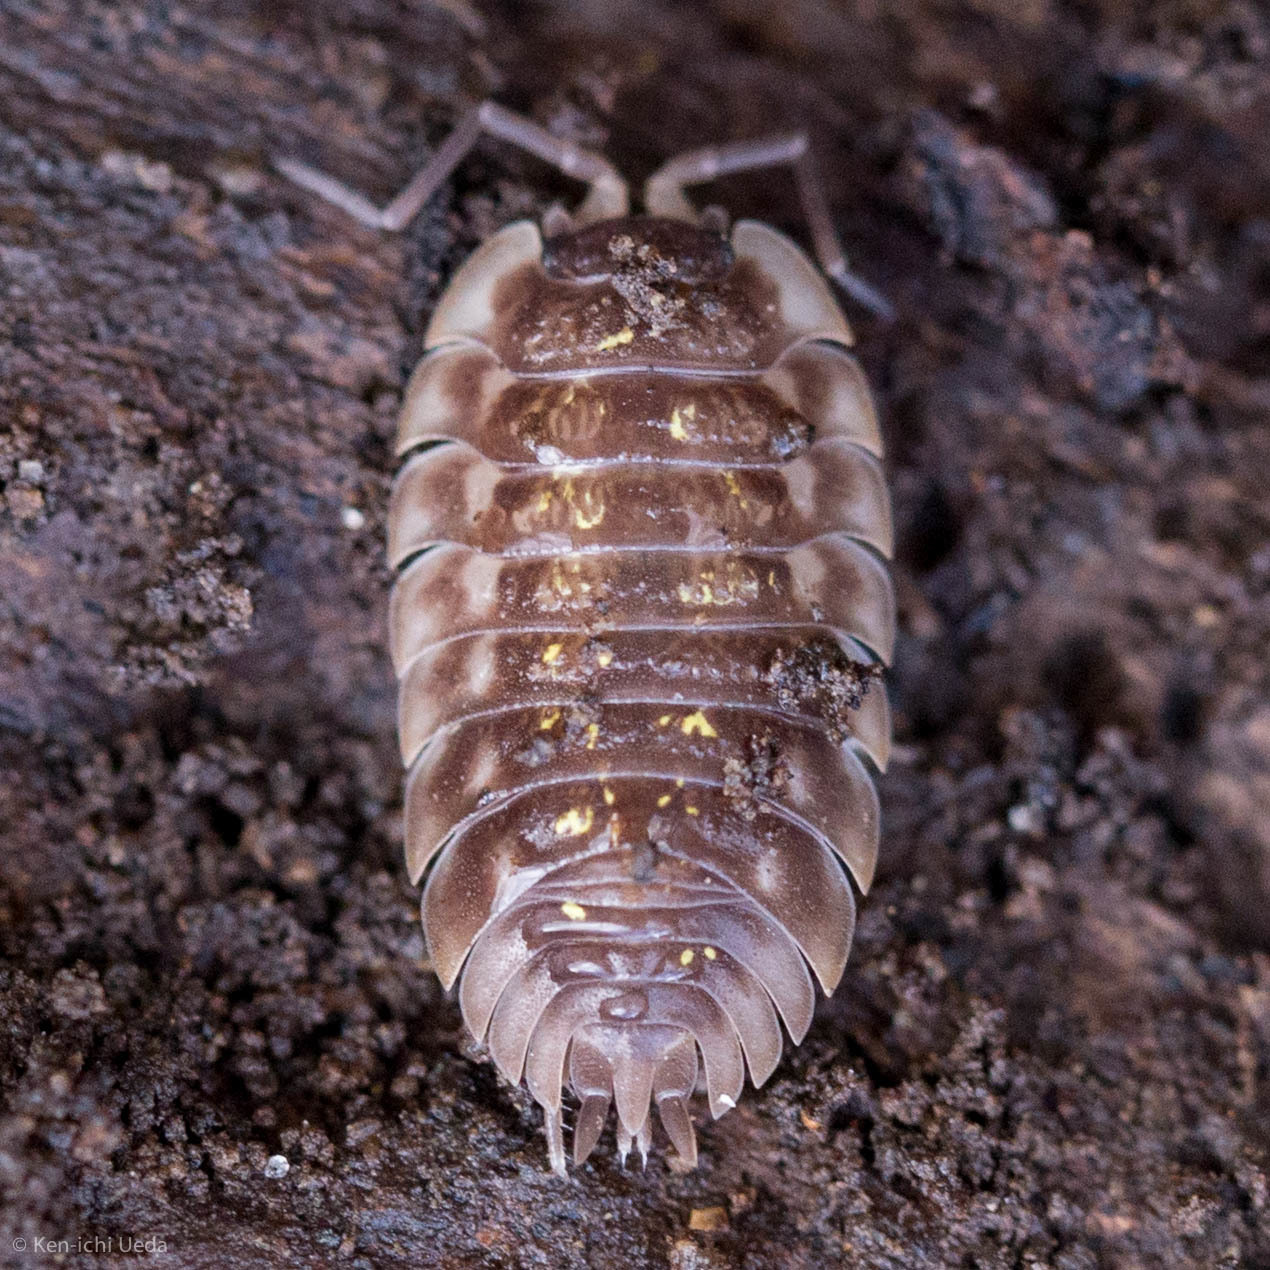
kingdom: Animalia
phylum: Arthropoda
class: Malacostraca
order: Isopoda
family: Oniscidae
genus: Oniscus
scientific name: Oniscus asellus
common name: Common shiny woodlouse
